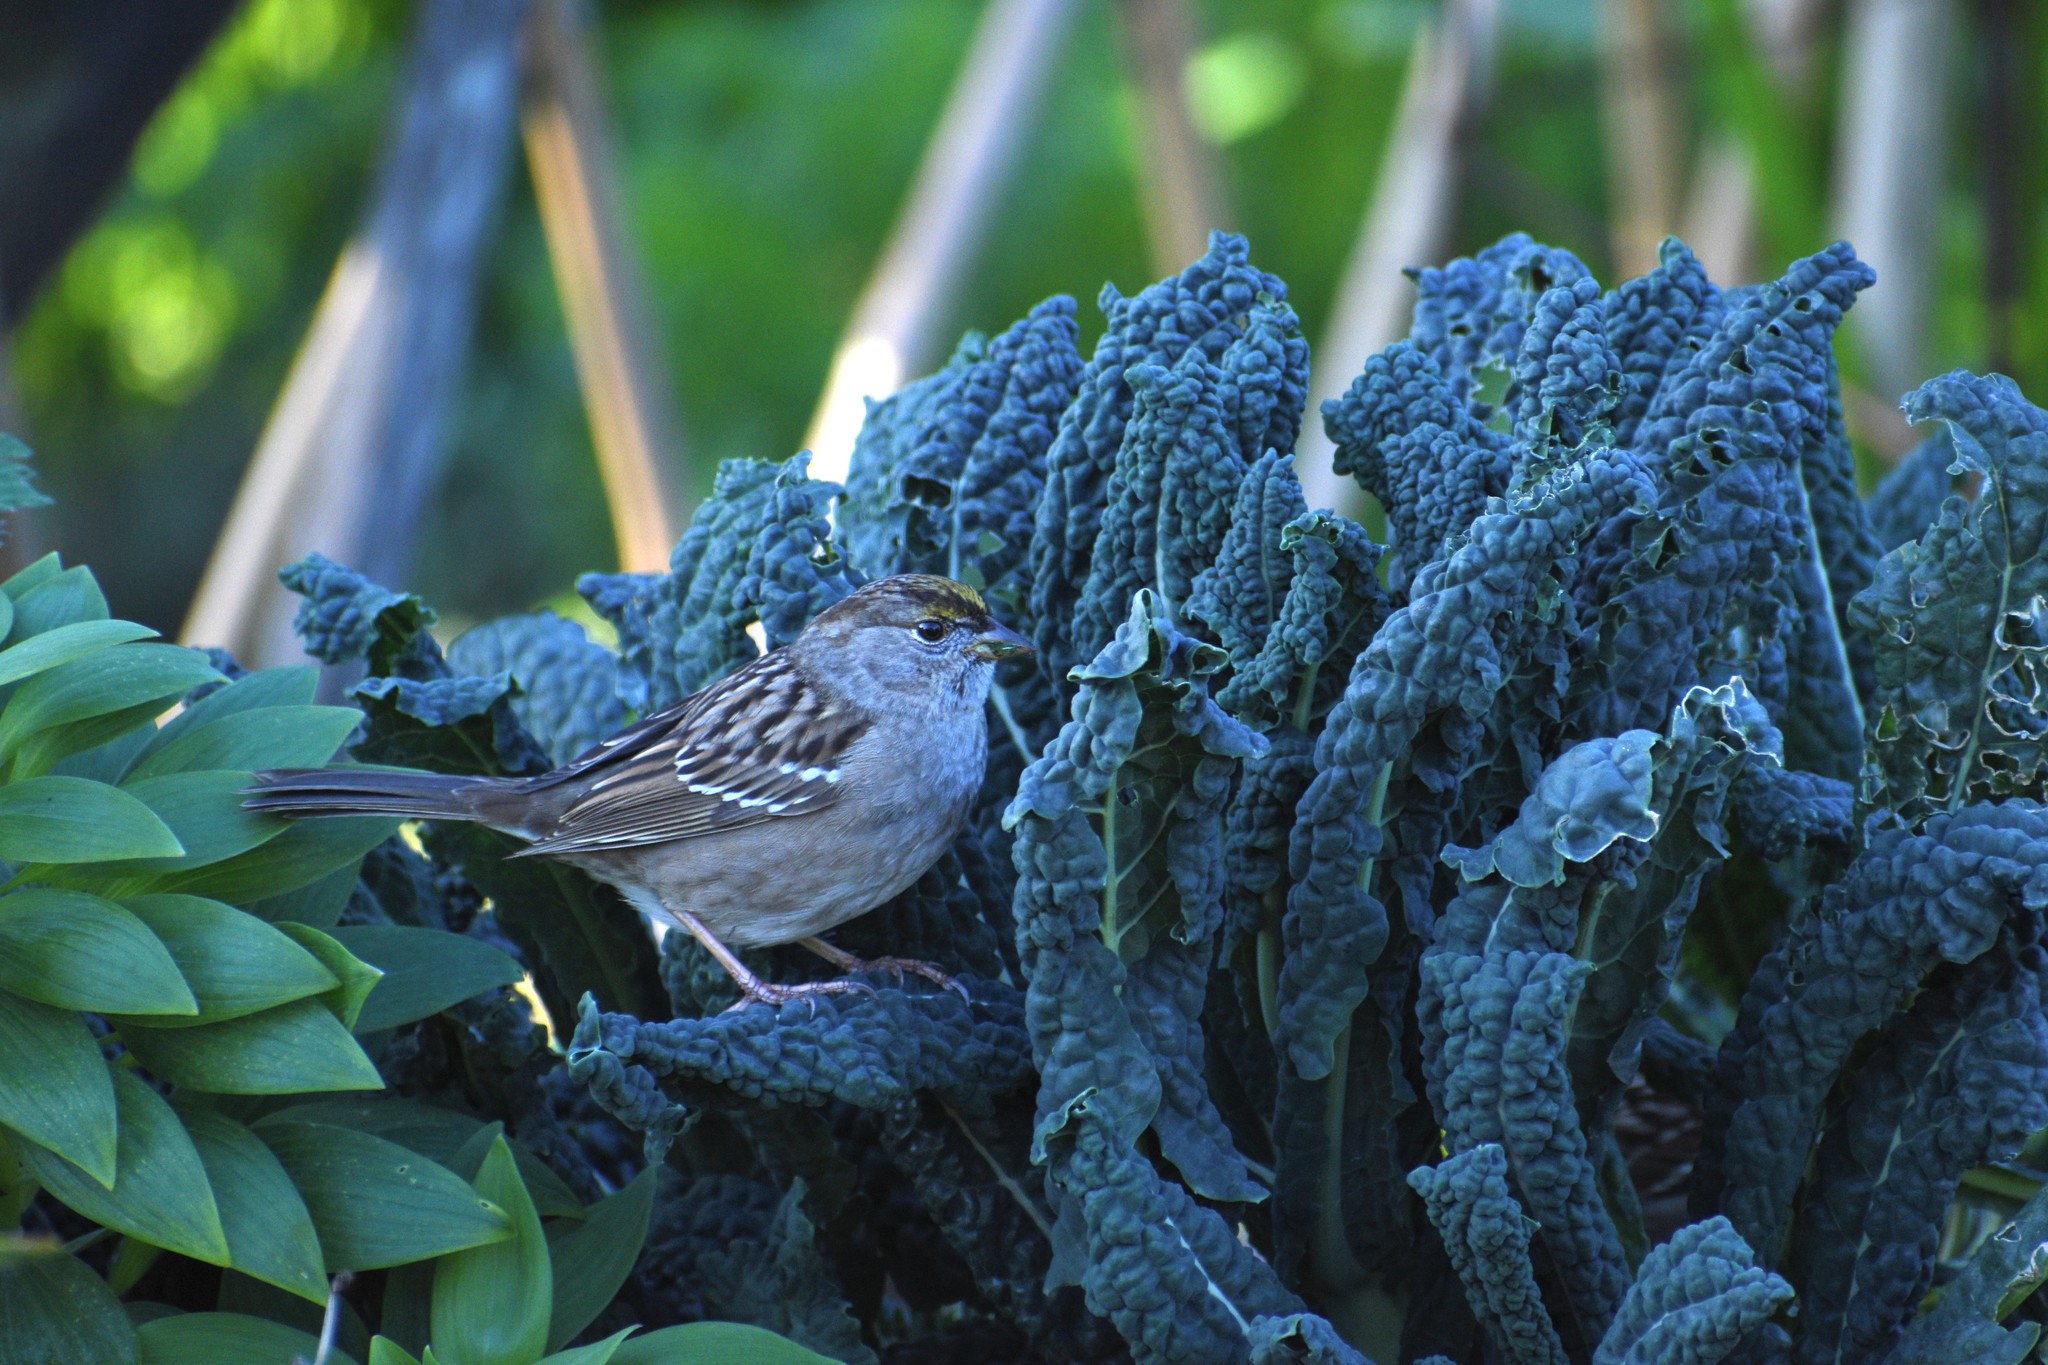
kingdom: Animalia
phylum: Chordata
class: Aves
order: Passeriformes
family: Passerellidae
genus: Zonotrichia
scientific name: Zonotrichia atricapilla
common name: Golden-crowned sparrow
